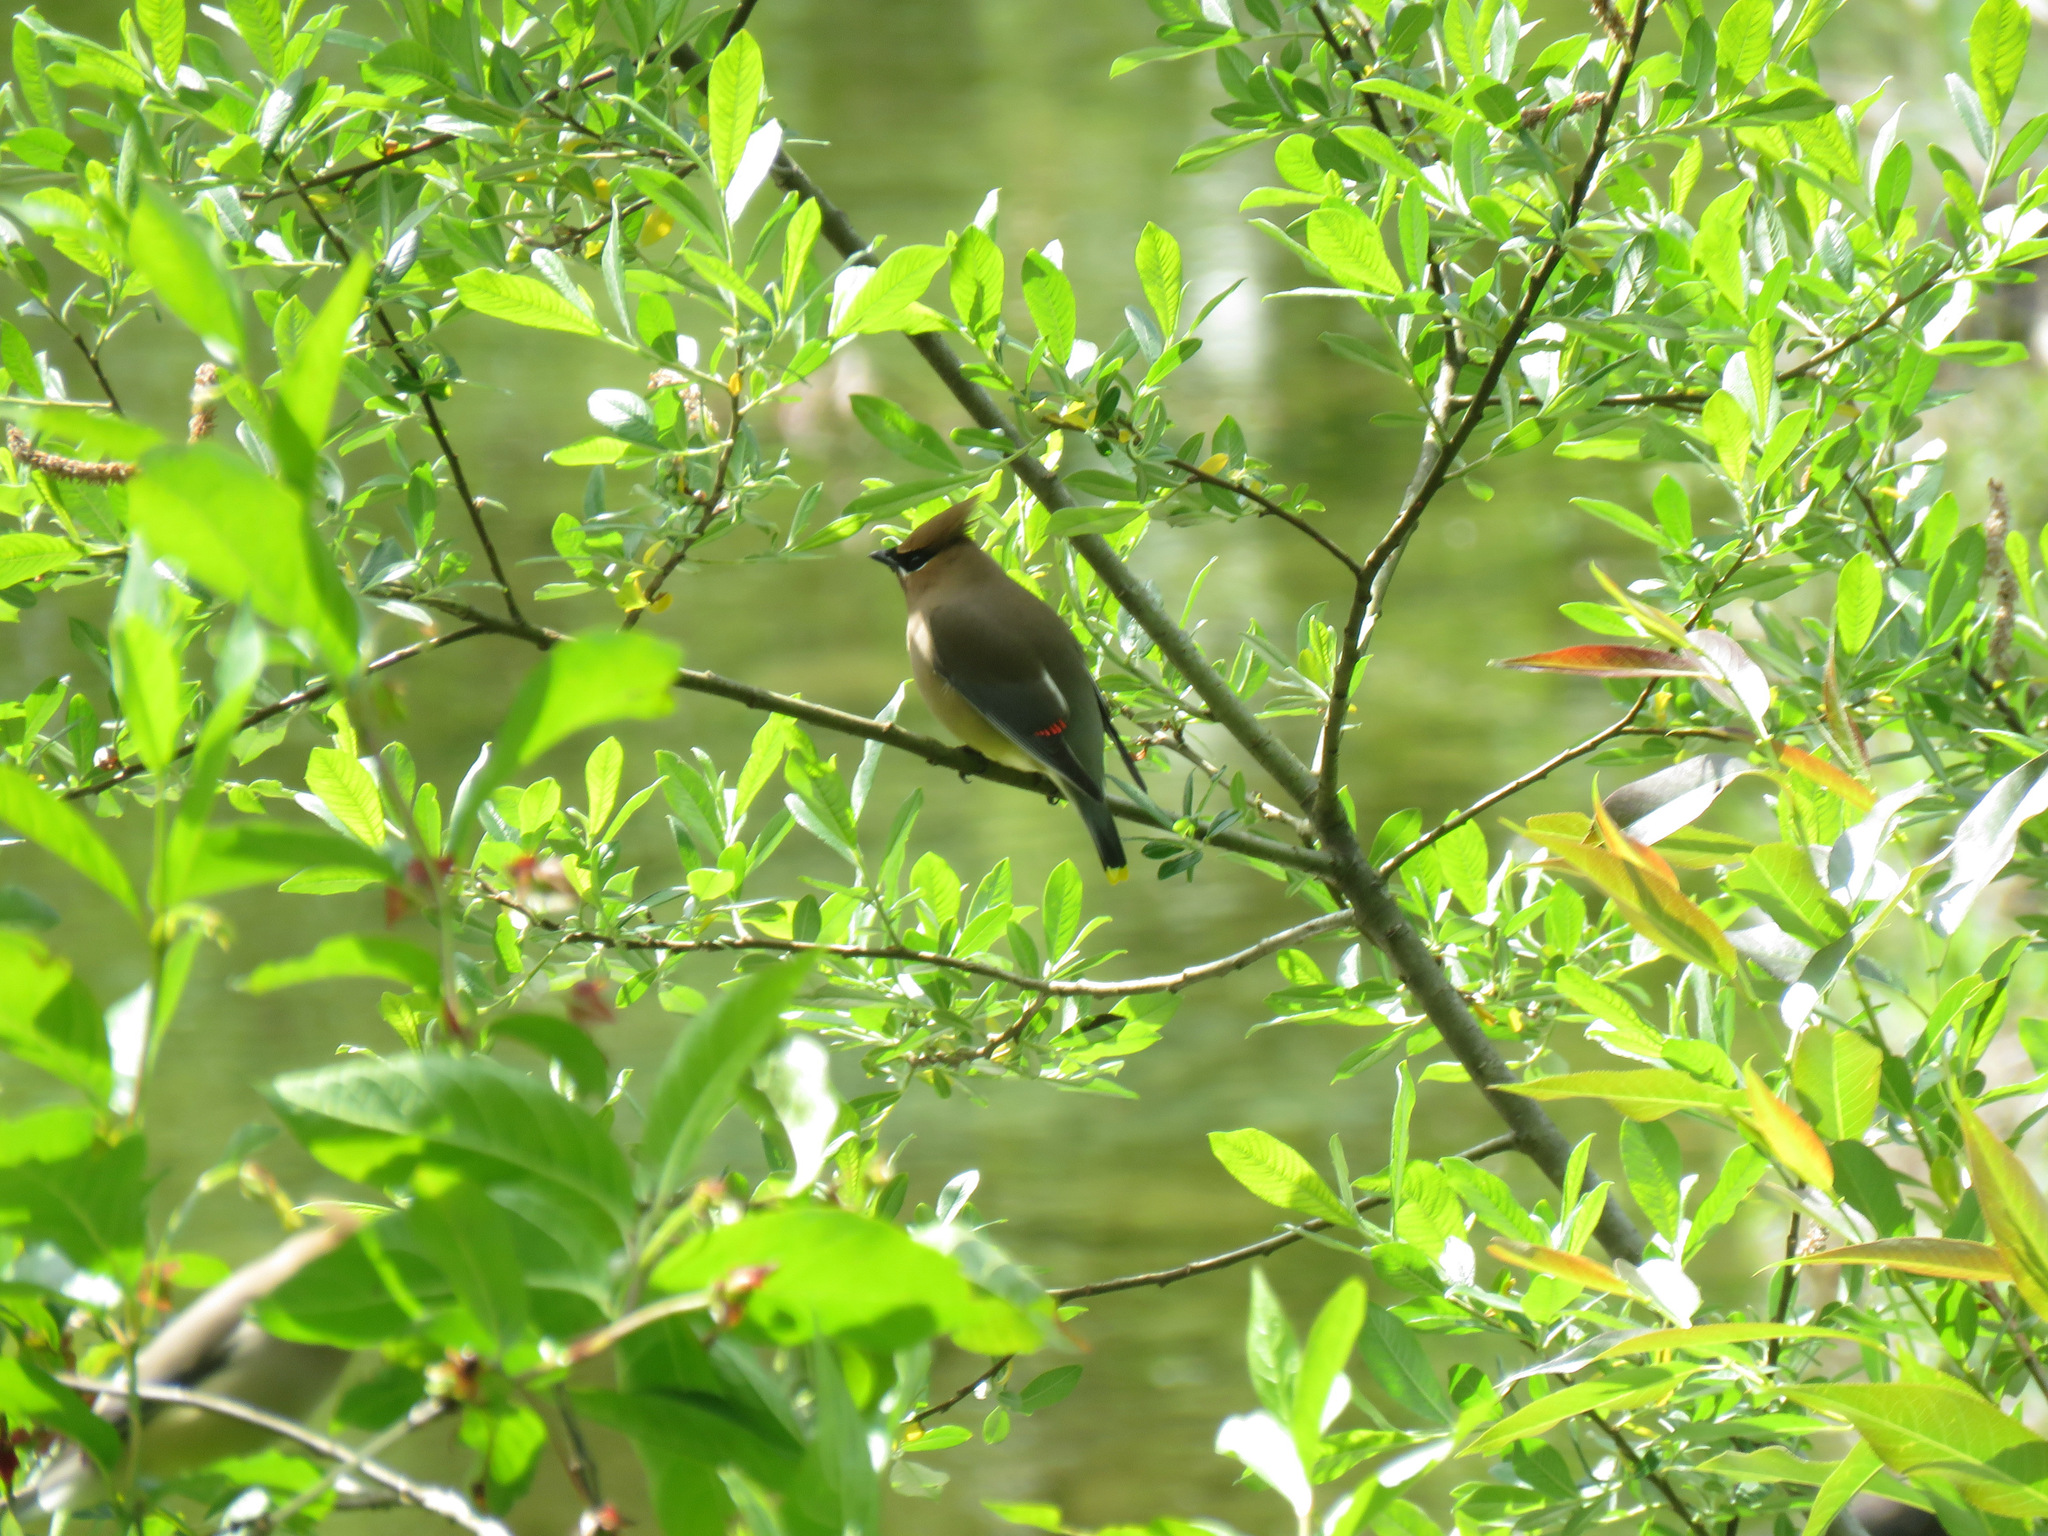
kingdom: Animalia
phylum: Chordata
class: Aves
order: Passeriformes
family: Bombycillidae
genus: Bombycilla
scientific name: Bombycilla cedrorum
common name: Cedar waxwing
